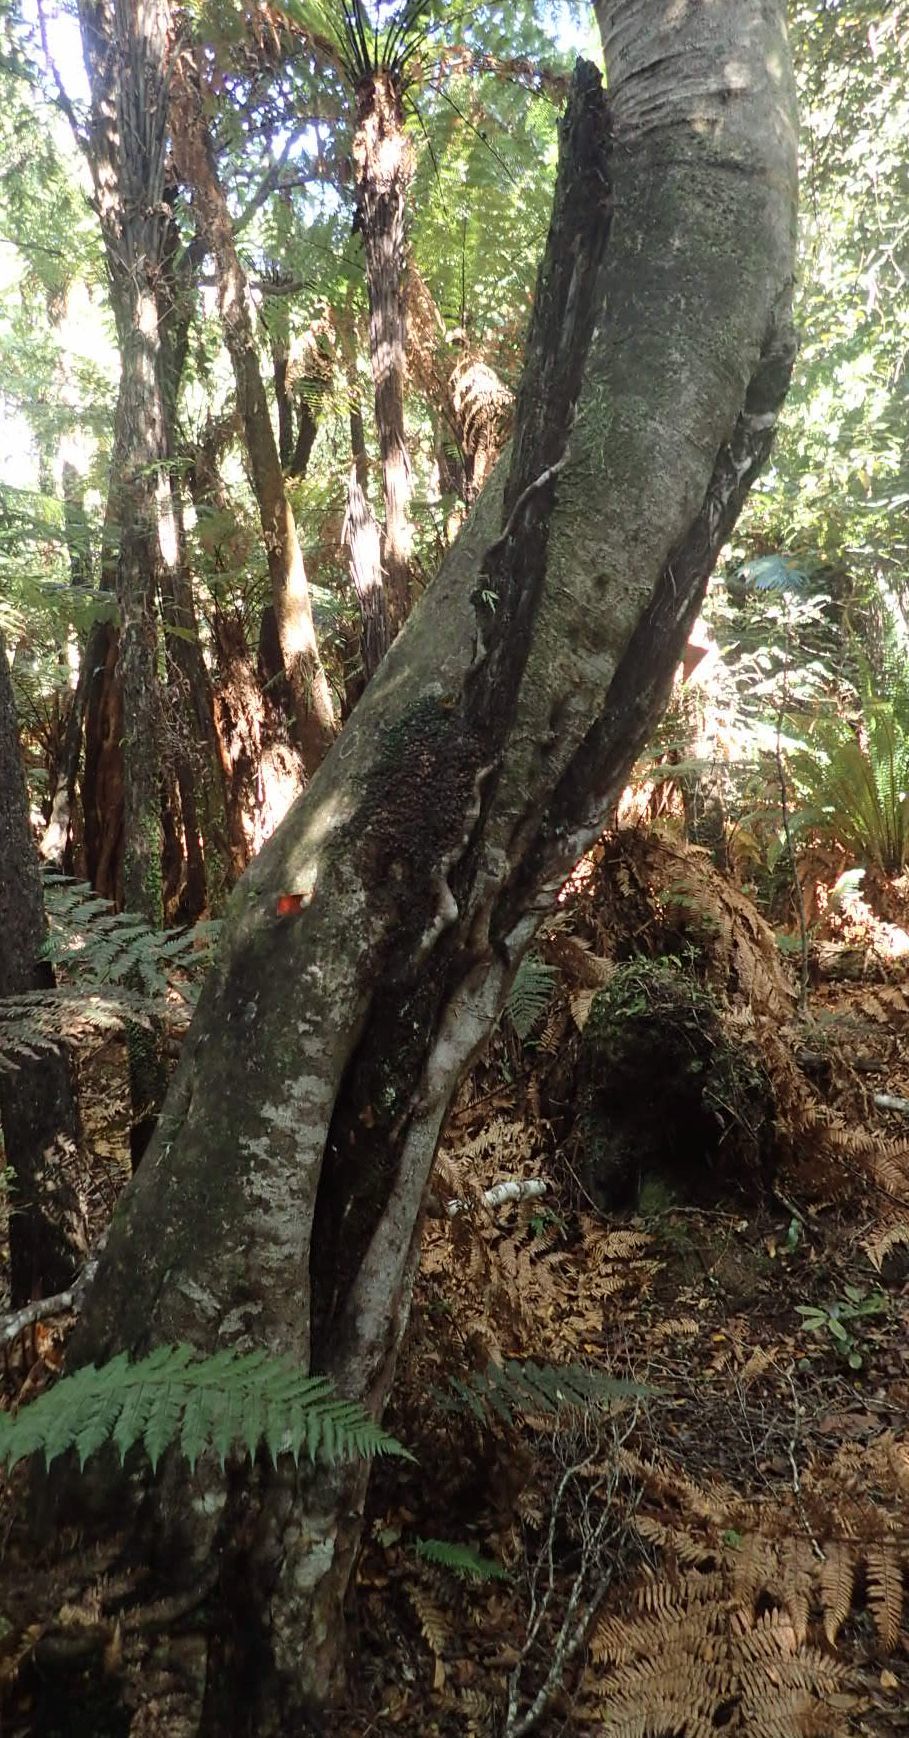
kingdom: Plantae
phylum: Tracheophyta
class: Magnoliopsida
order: Oxalidales
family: Cunoniaceae
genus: Pterophylla
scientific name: Pterophylla racemosa
